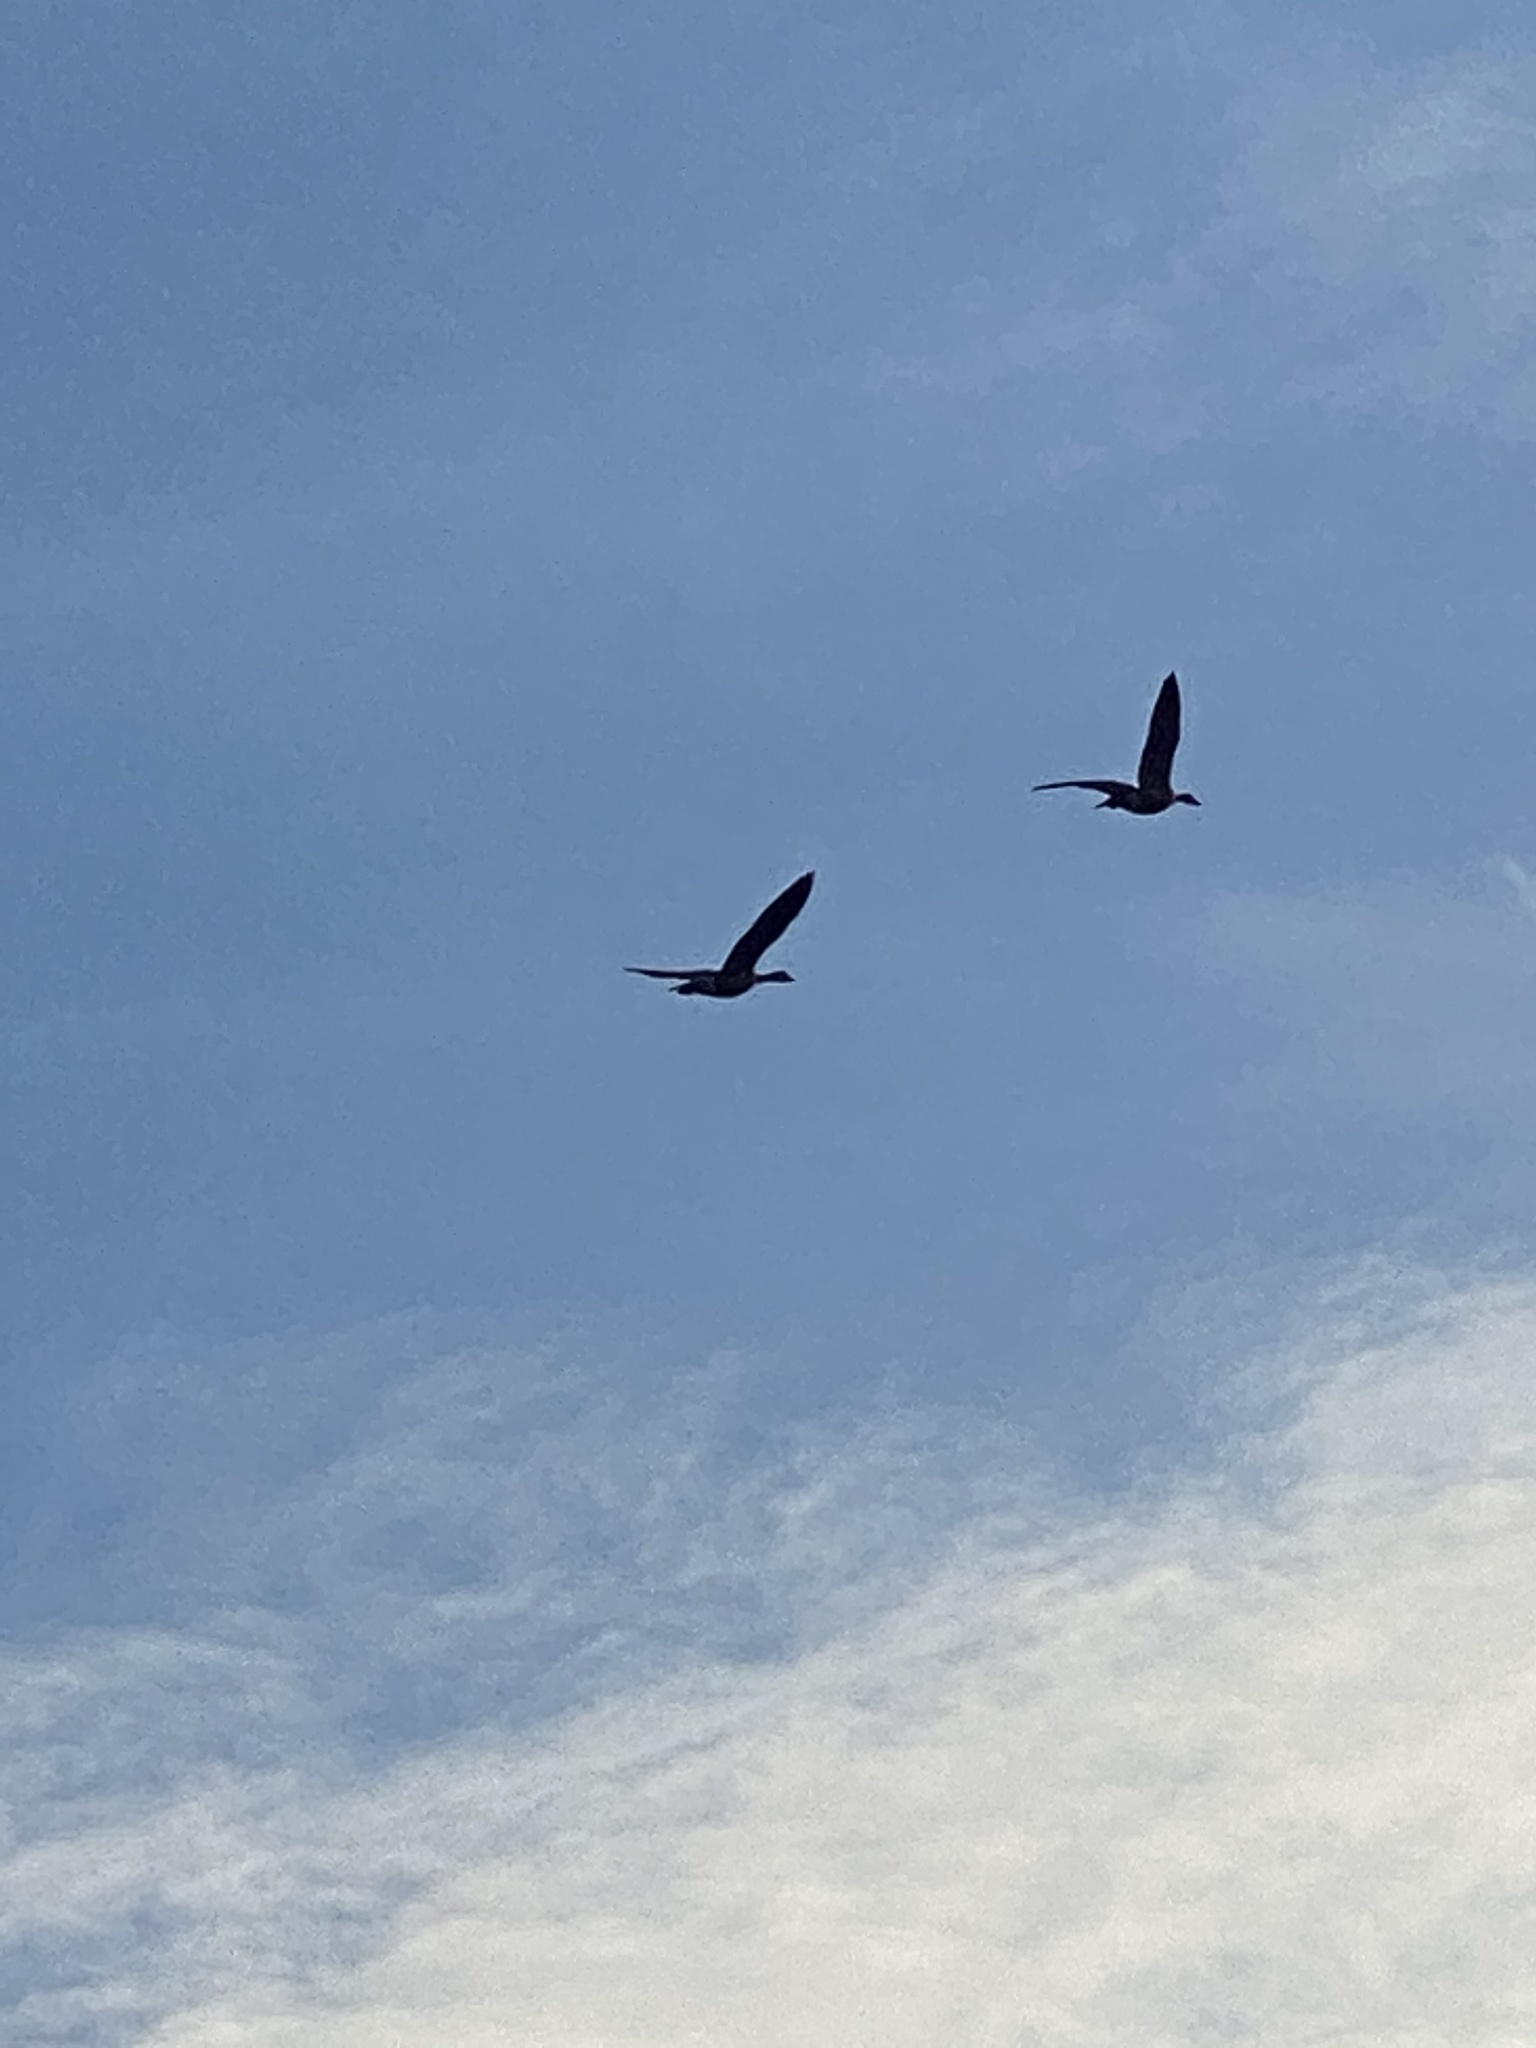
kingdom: Animalia
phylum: Chordata
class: Aves
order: Anseriformes
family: Anatidae
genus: Branta
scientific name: Branta canadensis
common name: Canada goose
